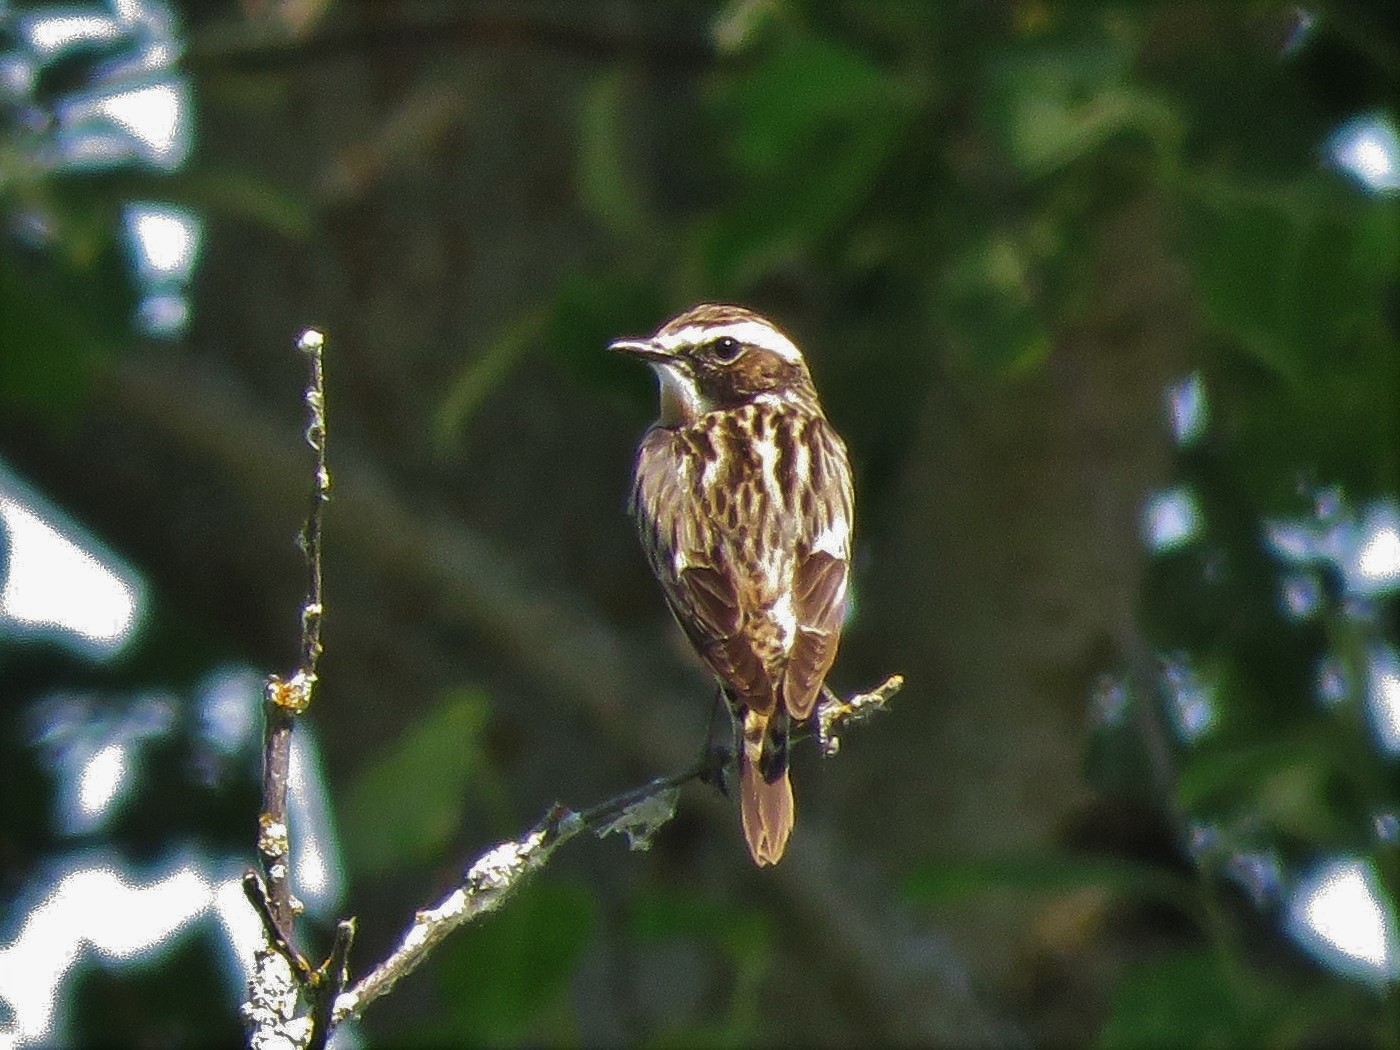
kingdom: Animalia
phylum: Chordata
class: Aves
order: Passeriformes
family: Muscicapidae
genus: Saxicola
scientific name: Saxicola rubetra
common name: Whinchat
